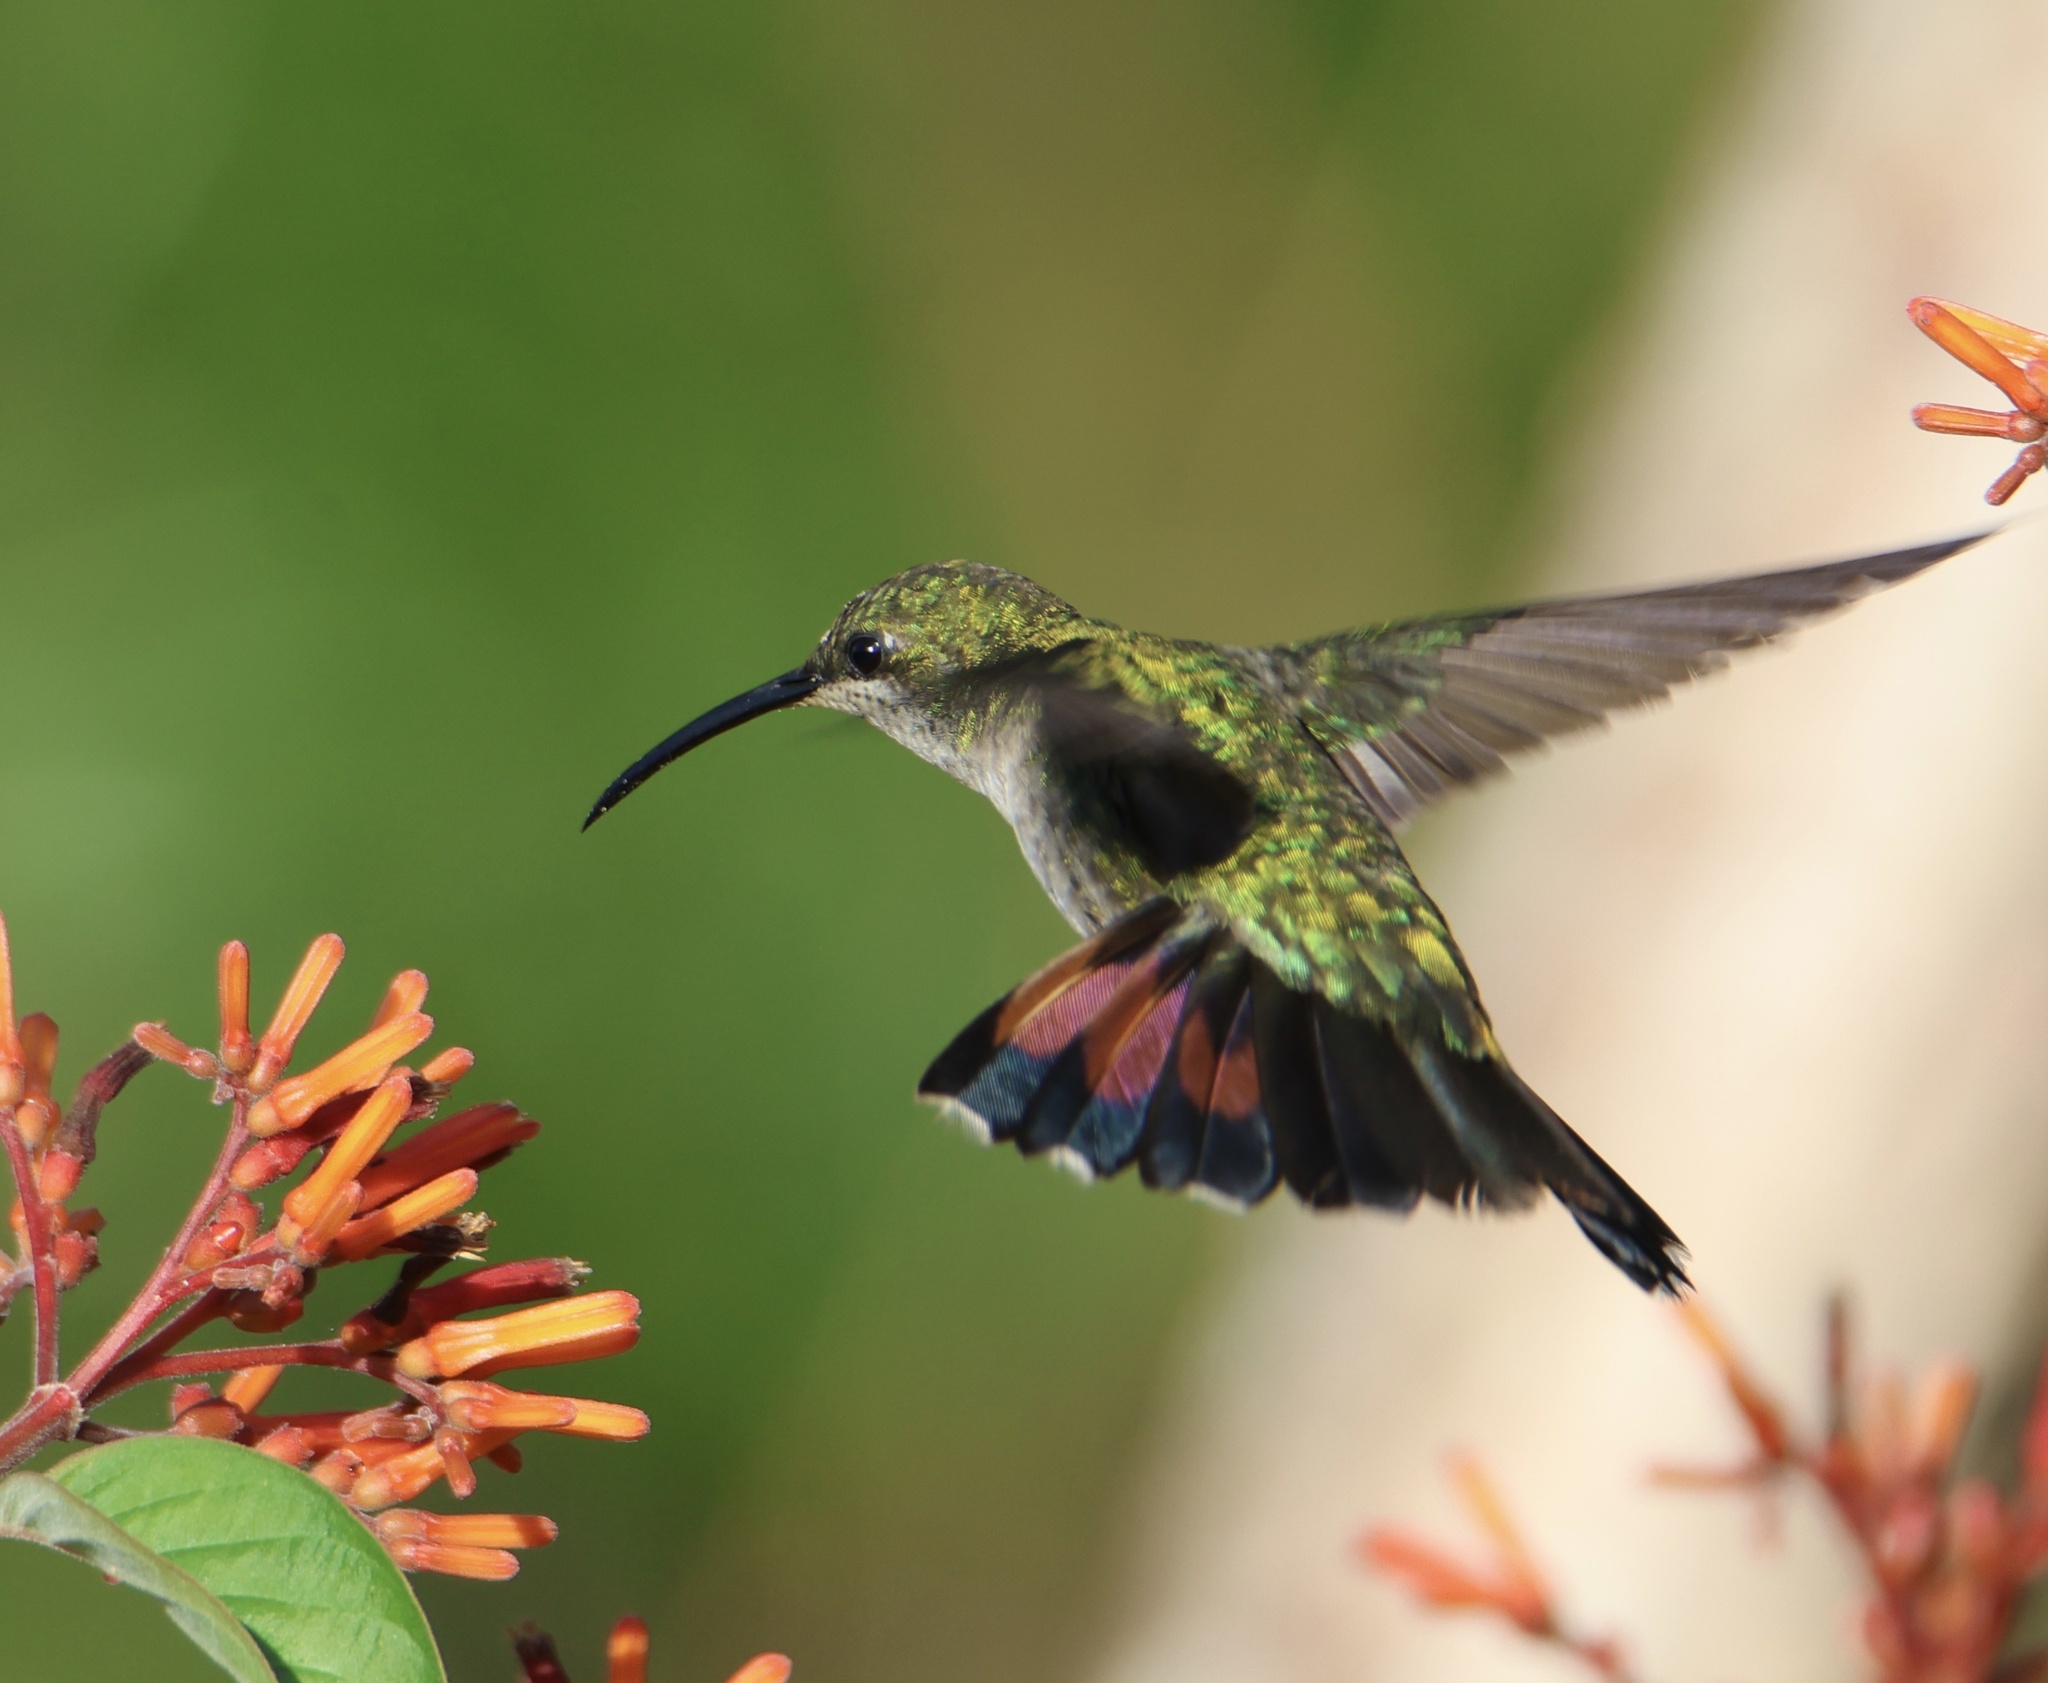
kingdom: Animalia
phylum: Chordata
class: Aves
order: Apodiformes
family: Trochilidae
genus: Anthracothorax
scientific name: Anthracothorax dominicus
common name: Antillean mango
